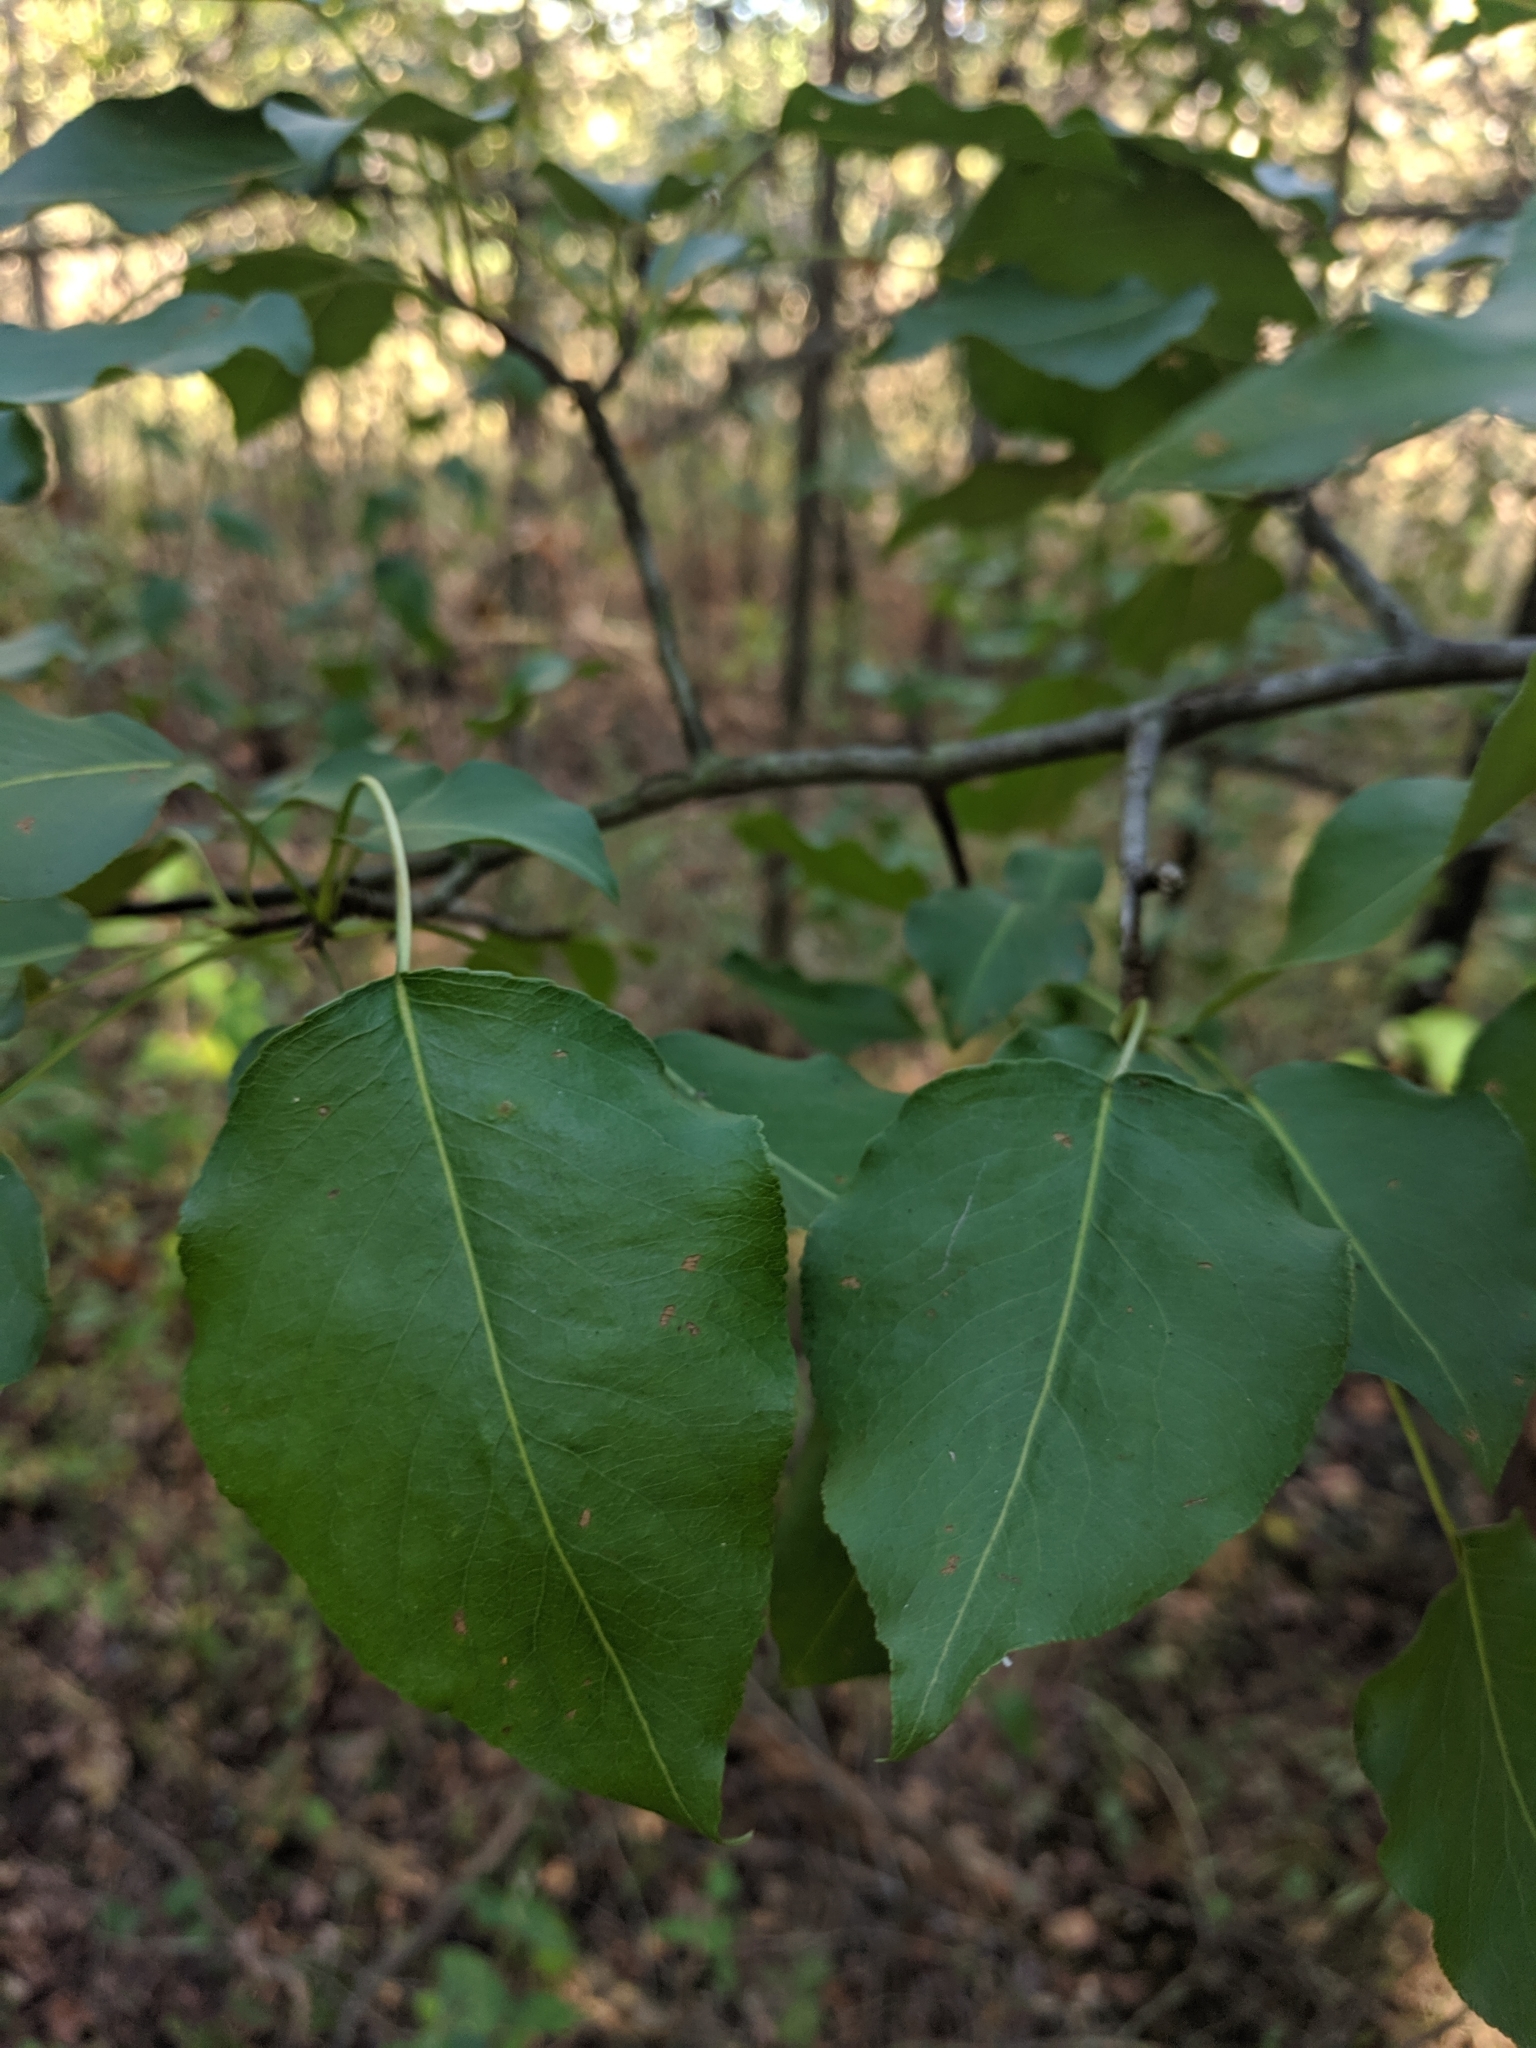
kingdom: Plantae
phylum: Tracheophyta
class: Magnoliopsida
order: Rosales
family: Rosaceae
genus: Pyrus
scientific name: Pyrus calleryana
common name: Callery pear
